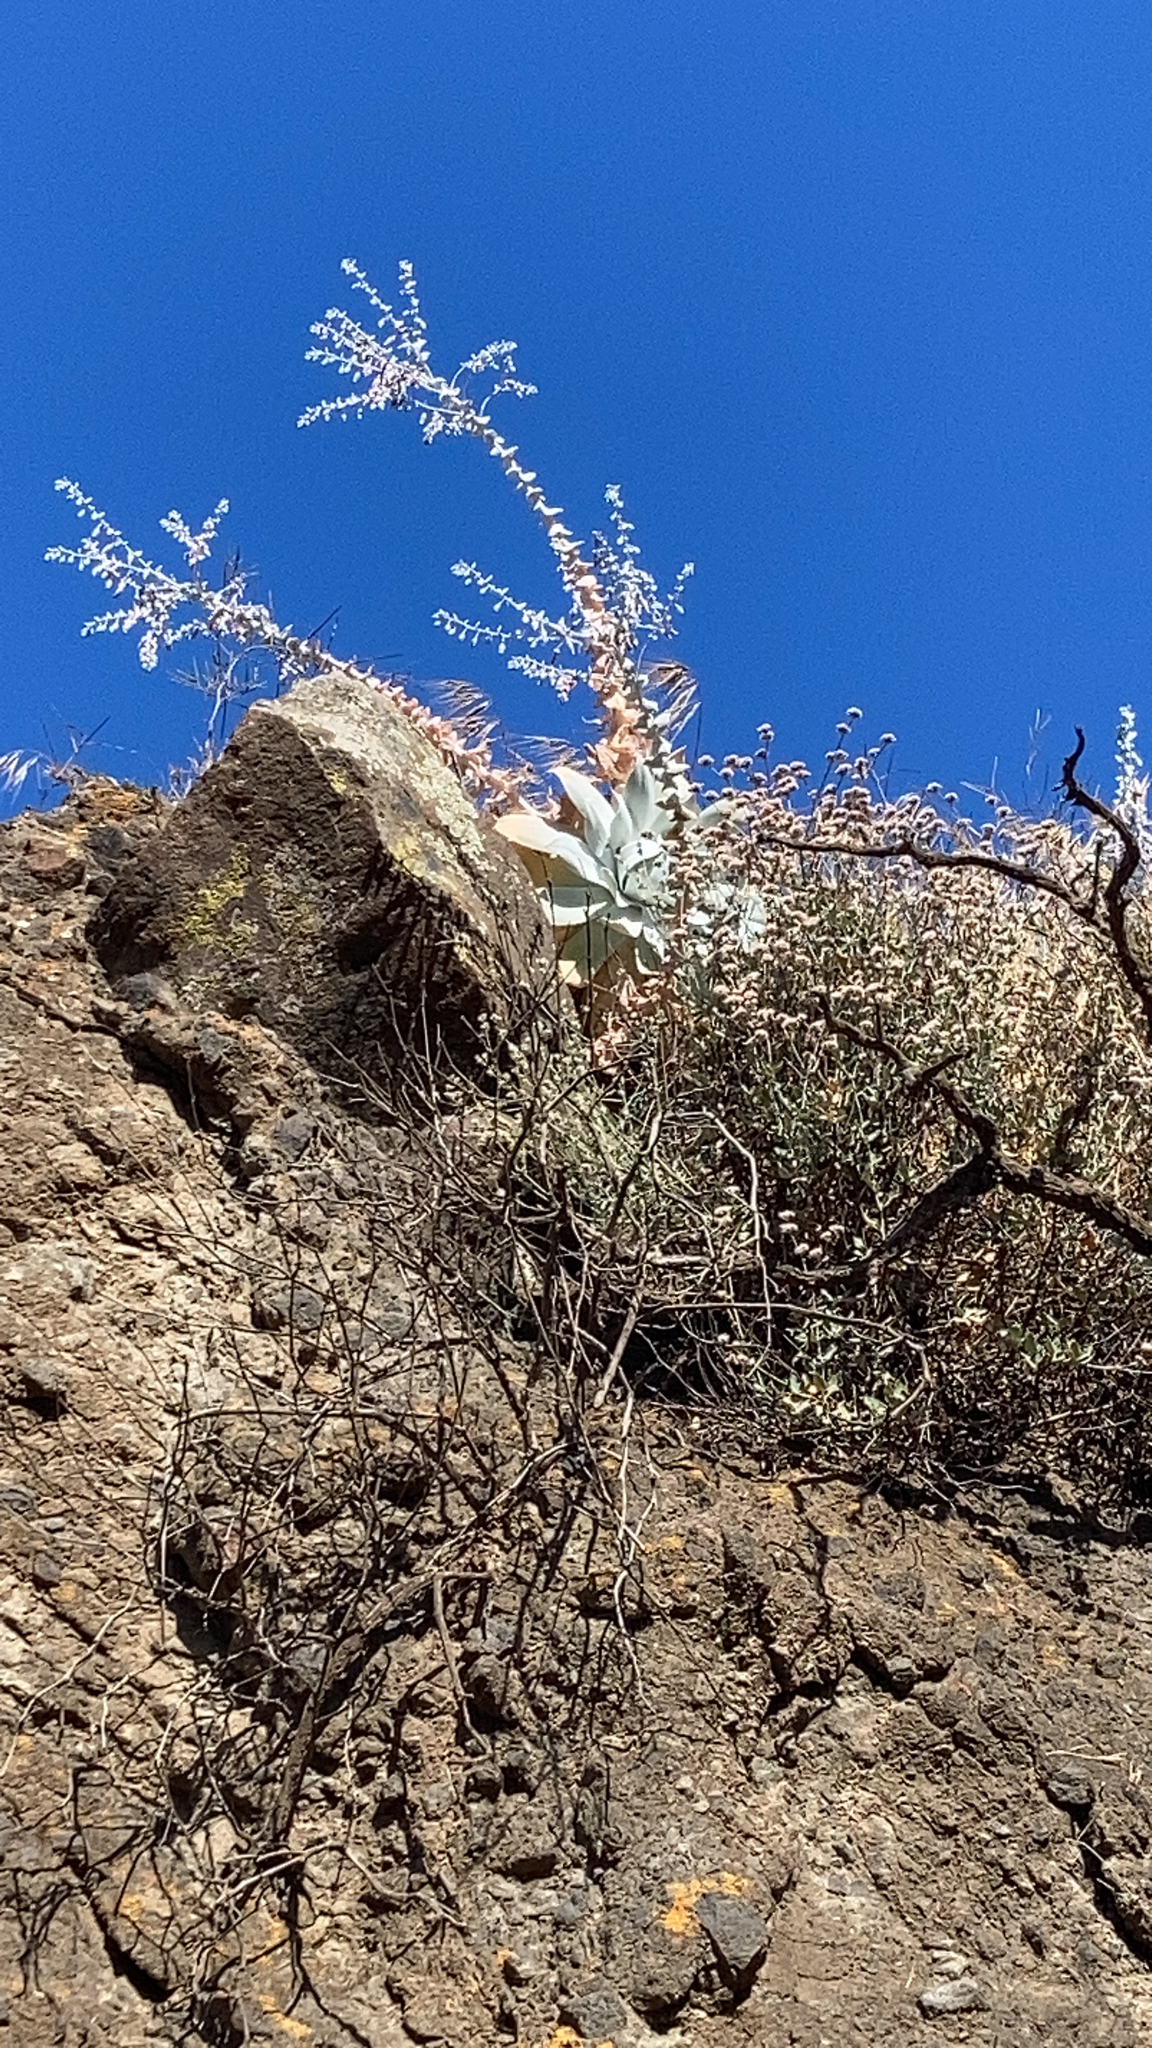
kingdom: Plantae
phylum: Tracheophyta
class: Magnoliopsida
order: Saxifragales
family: Crassulaceae
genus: Dudleya
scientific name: Dudleya pulverulenta
